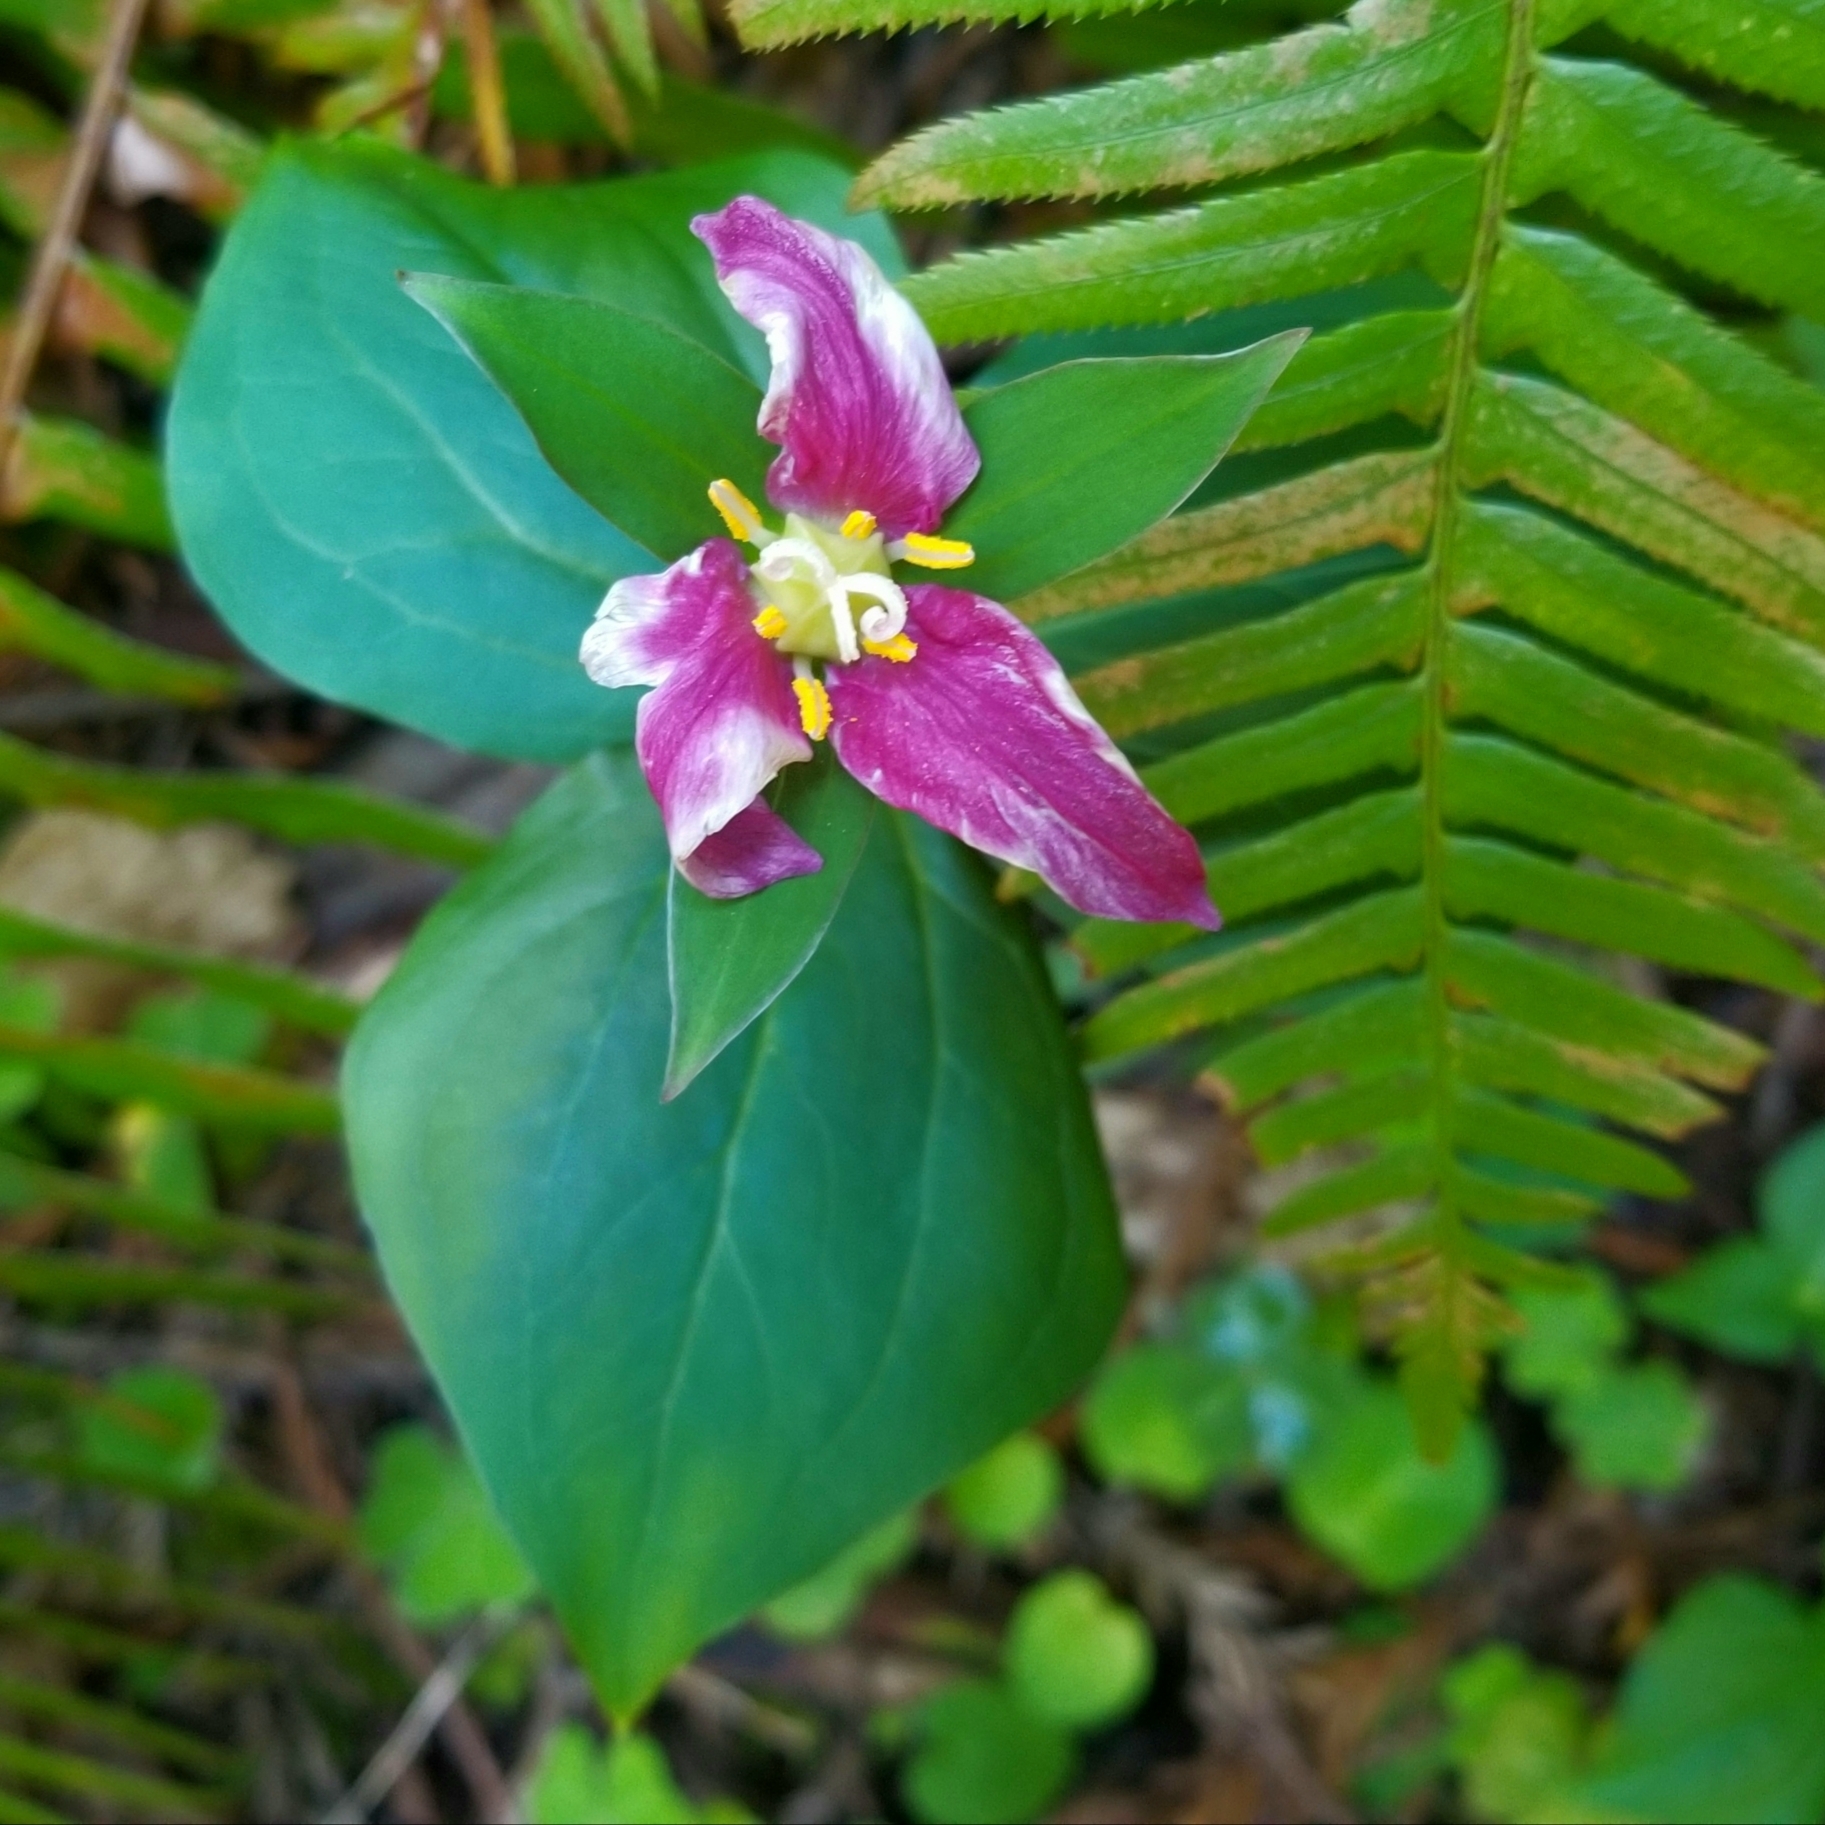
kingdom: Plantae
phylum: Tracheophyta
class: Liliopsida
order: Liliales
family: Melanthiaceae
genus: Trillium
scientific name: Trillium ovatum
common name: Pacific trillium
